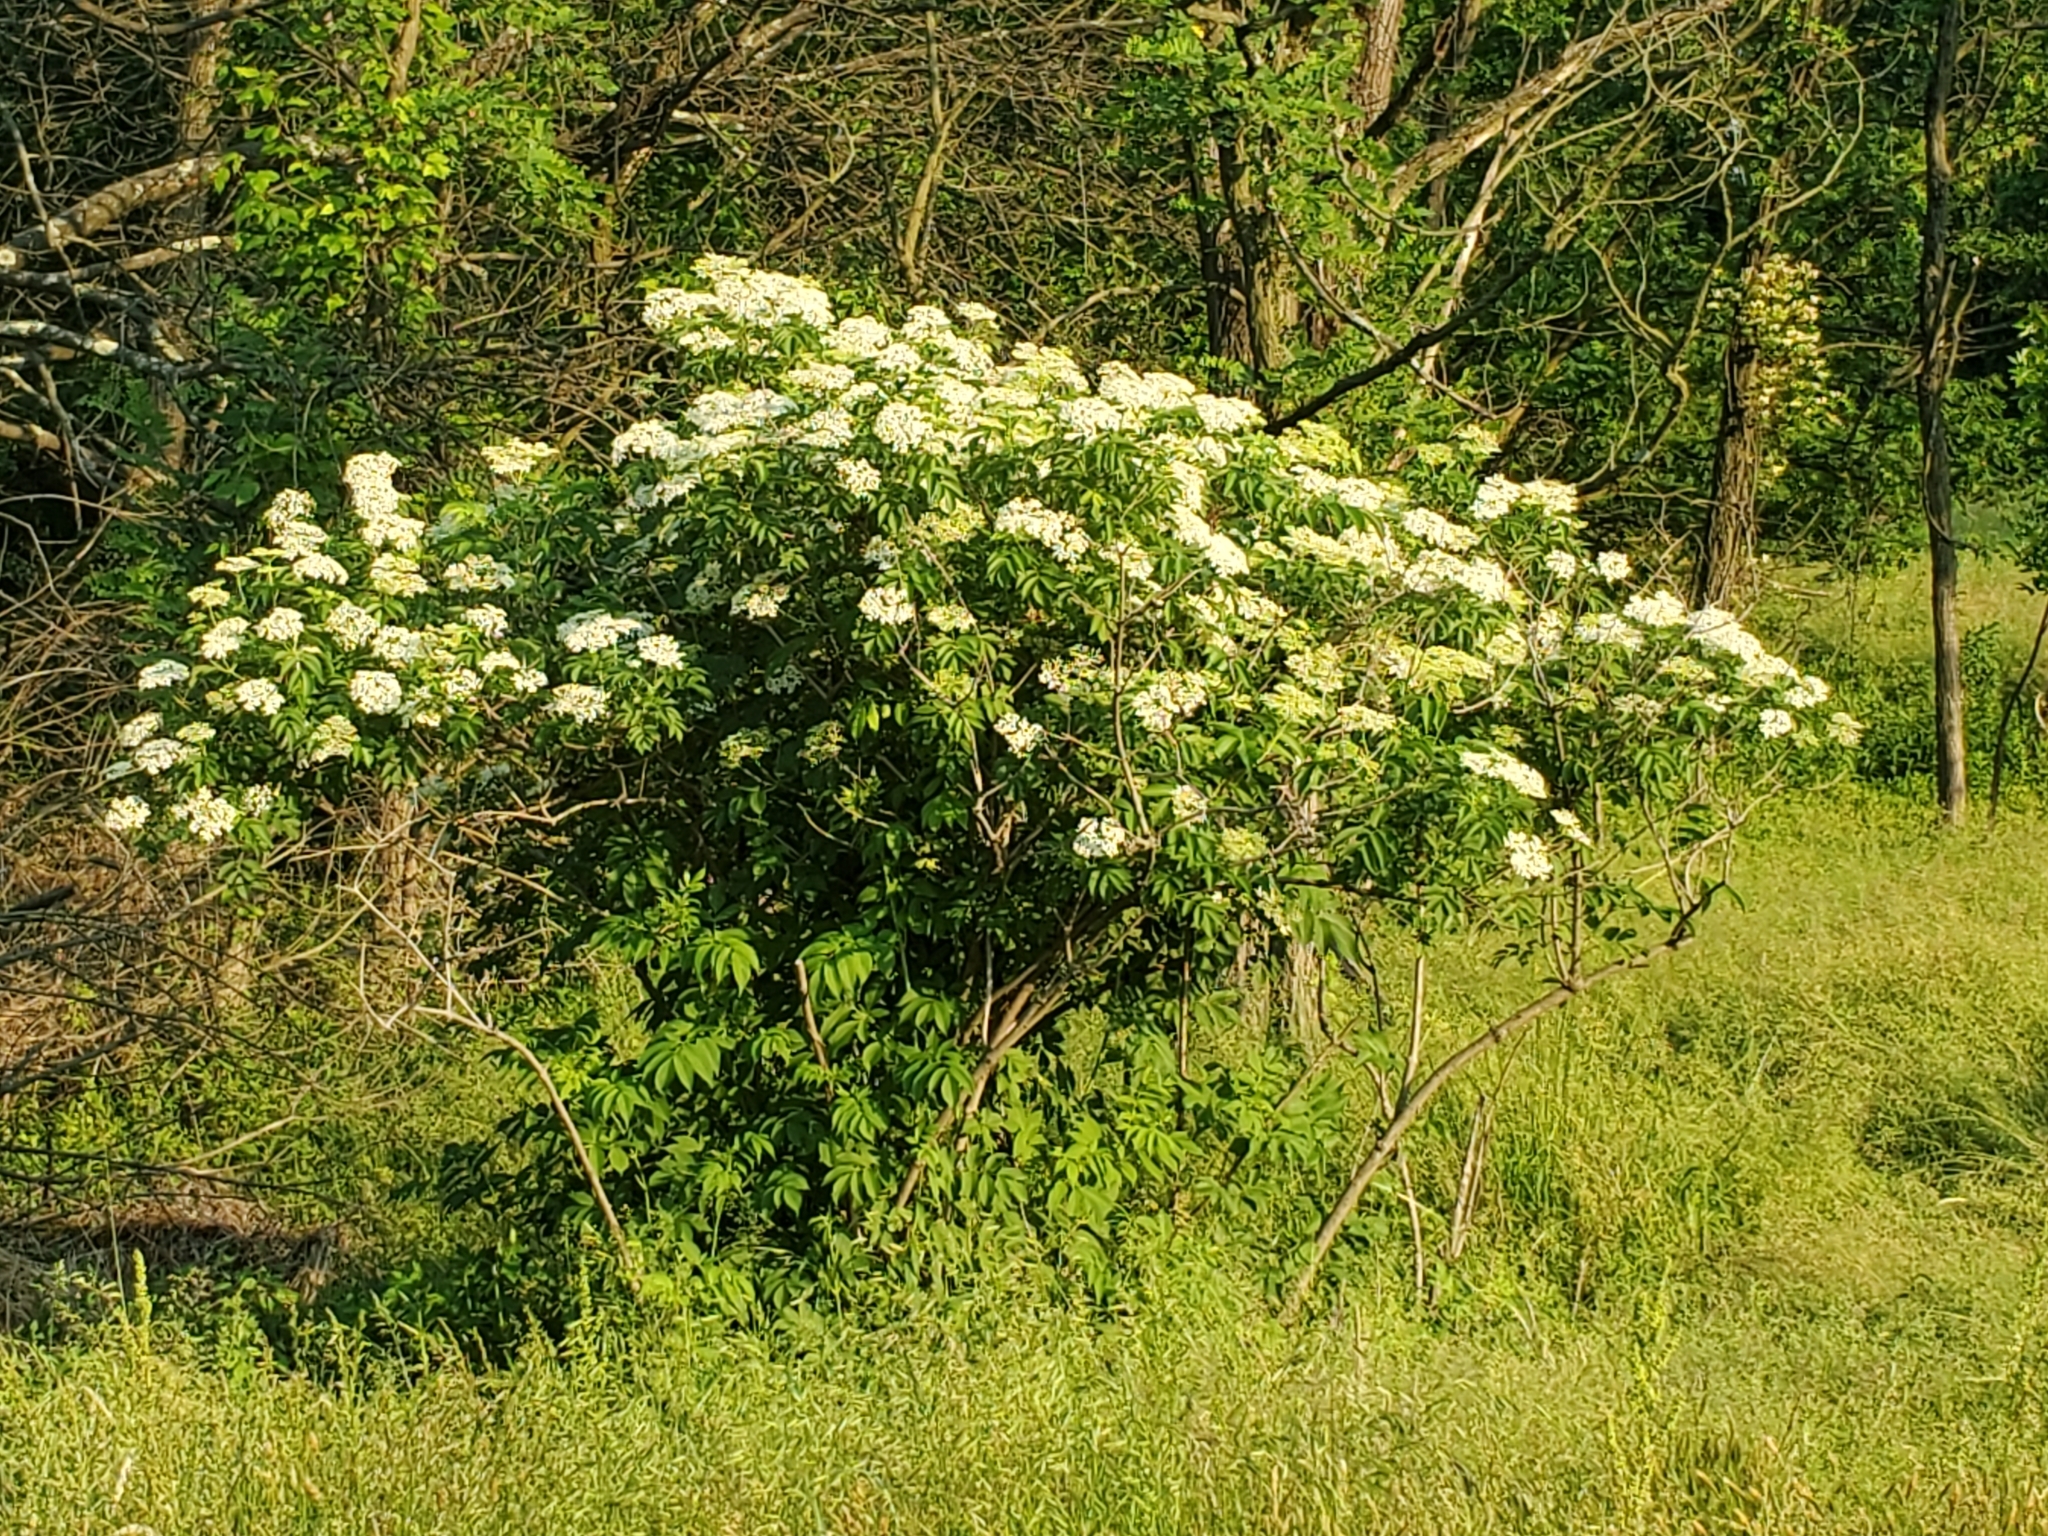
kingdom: Plantae
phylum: Tracheophyta
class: Magnoliopsida
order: Dipsacales
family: Viburnaceae
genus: Sambucus
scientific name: Sambucus canadensis
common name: American elder
